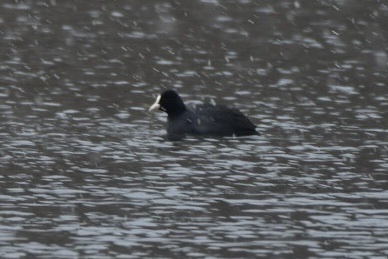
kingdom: Animalia
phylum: Chordata
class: Aves
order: Gruiformes
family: Rallidae
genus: Fulica
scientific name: Fulica atra
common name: Eurasian coot
